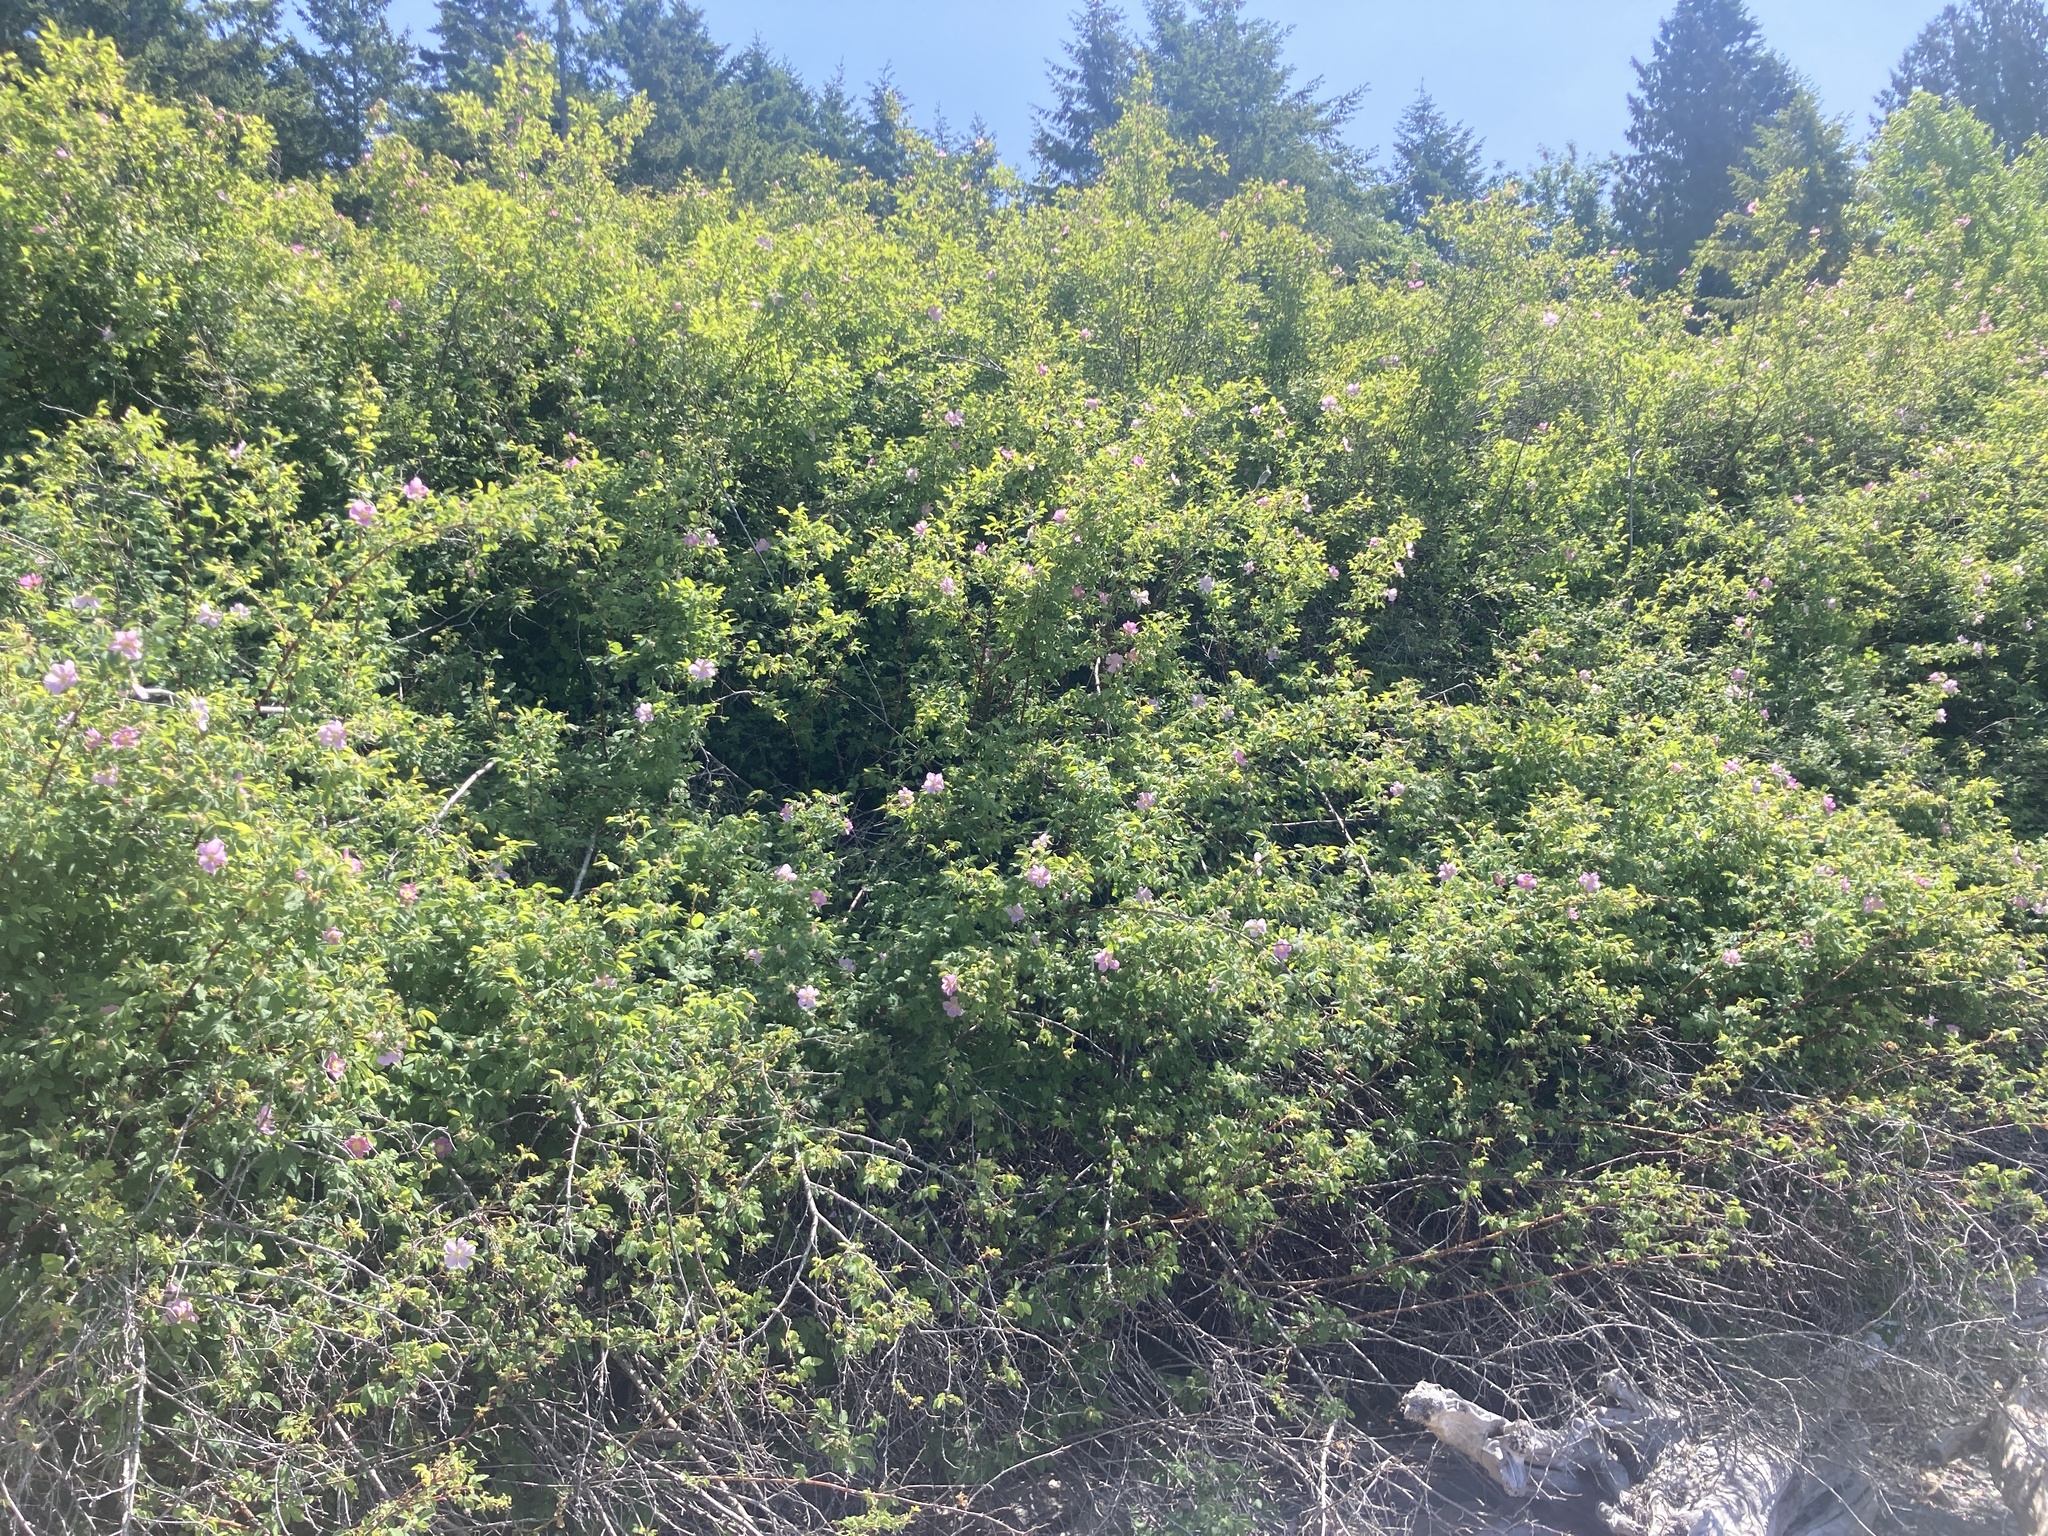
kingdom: Plantae
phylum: Tracheophyta
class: Magnoliopsida
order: Rosales
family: Rosaceae
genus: Rosa
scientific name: Rosa nutkana
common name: Nootka rose
